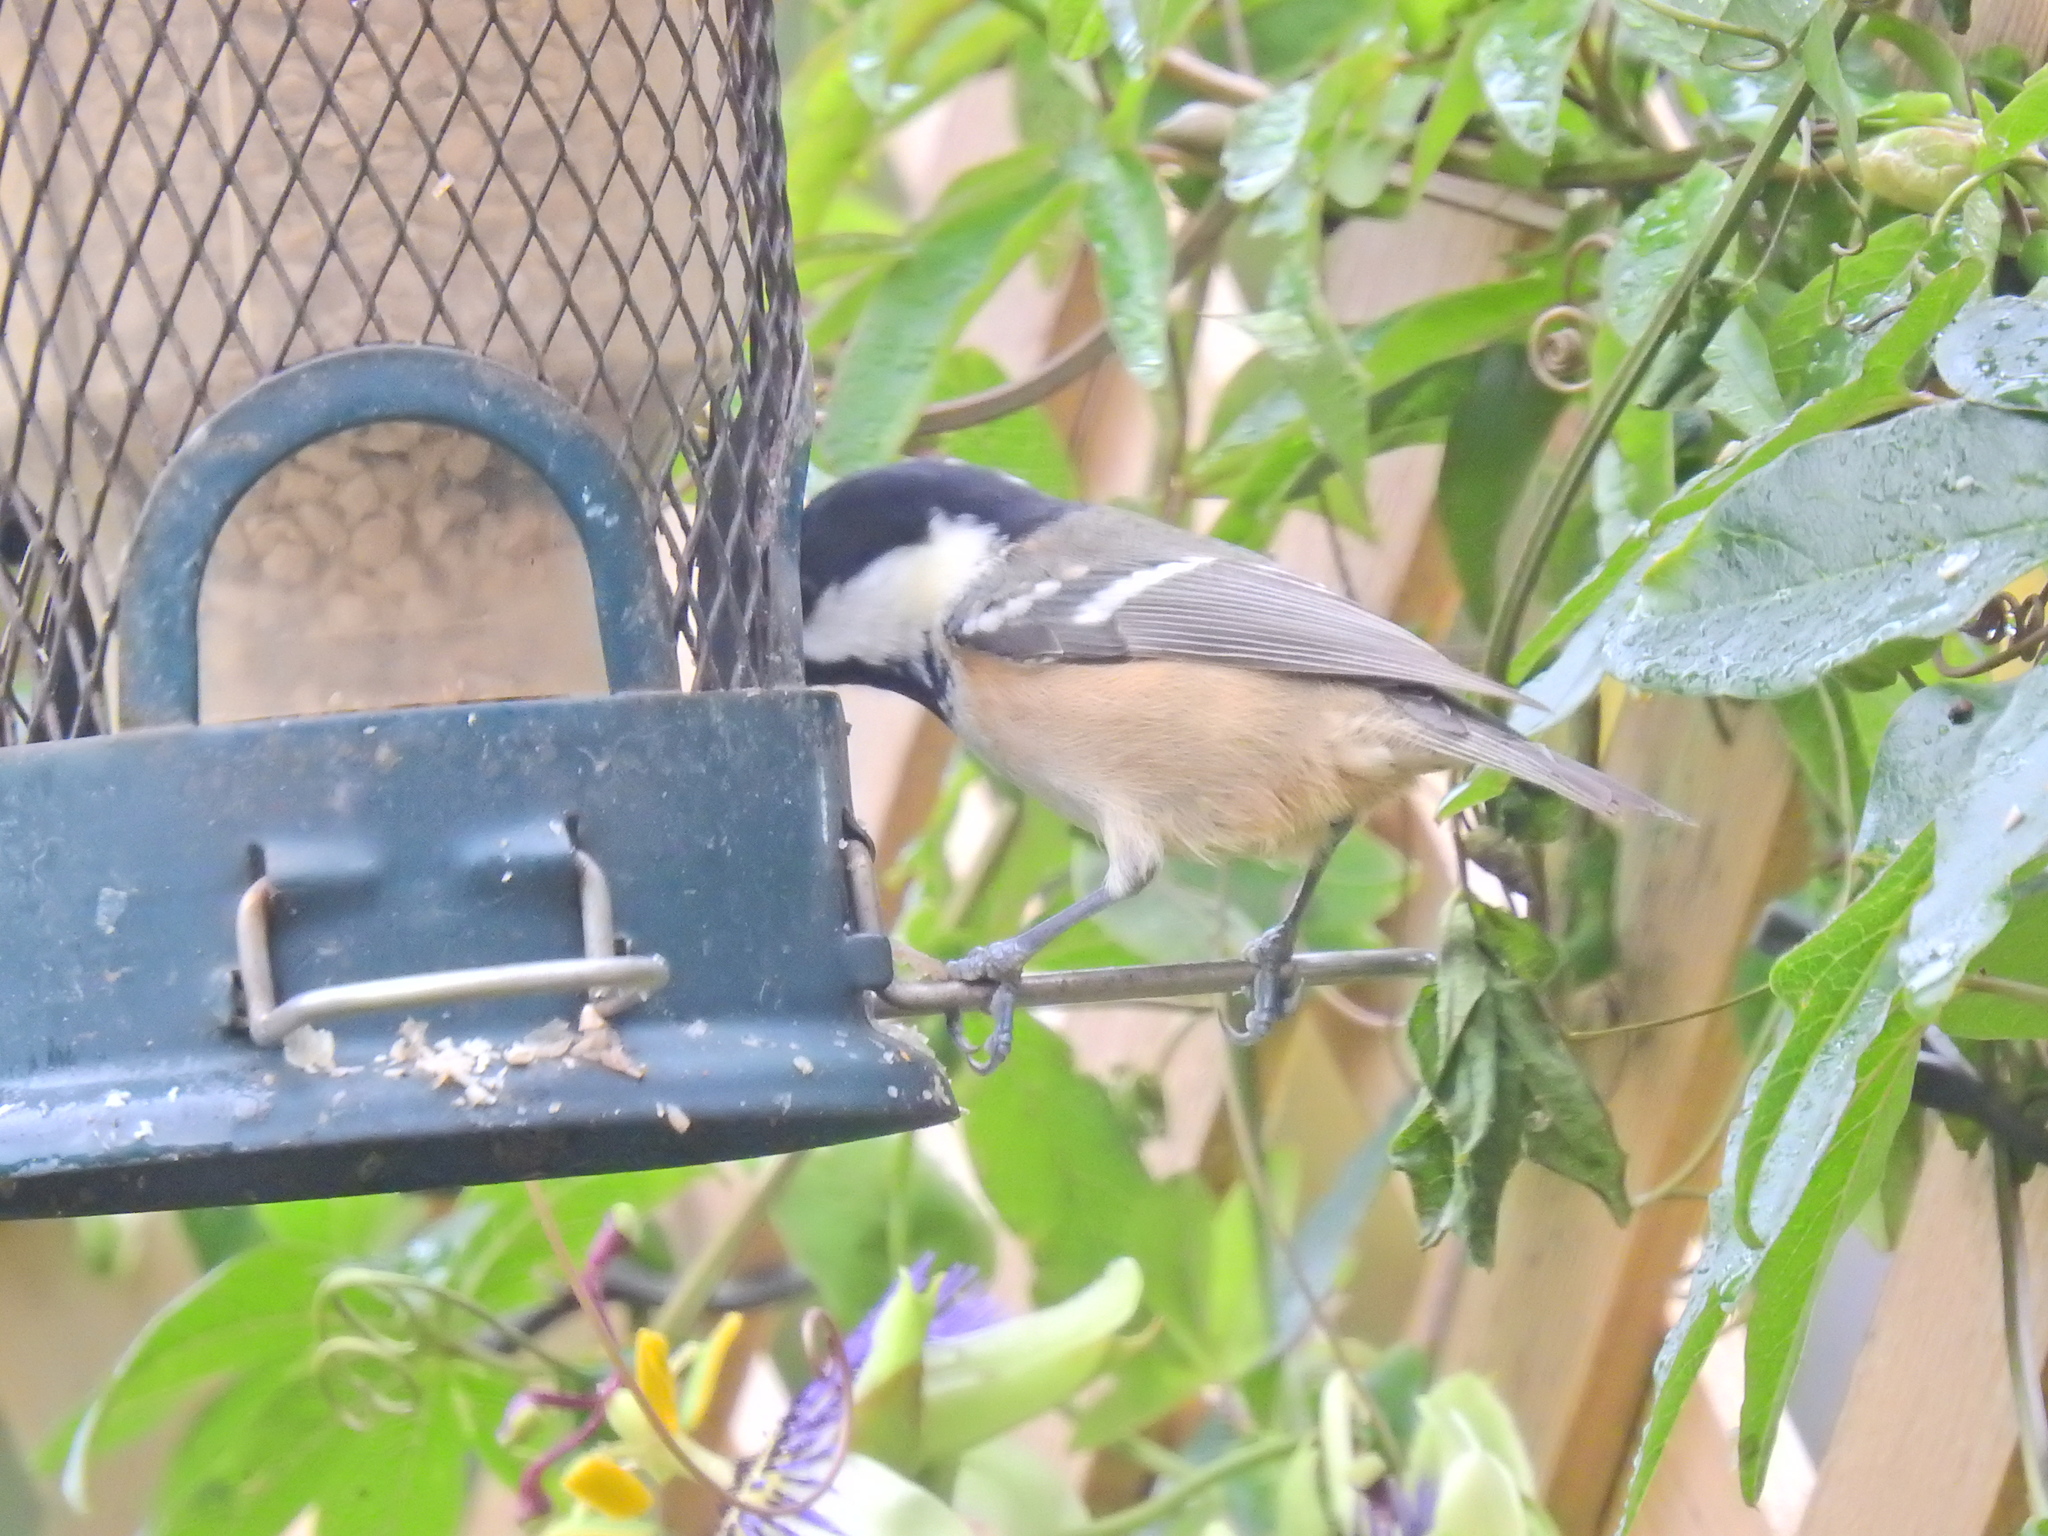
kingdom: Animalia
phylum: Chordata
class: Aves
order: Passeriformes
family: Paridae
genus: Periparus
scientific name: Periparus ater
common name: Coal tit
